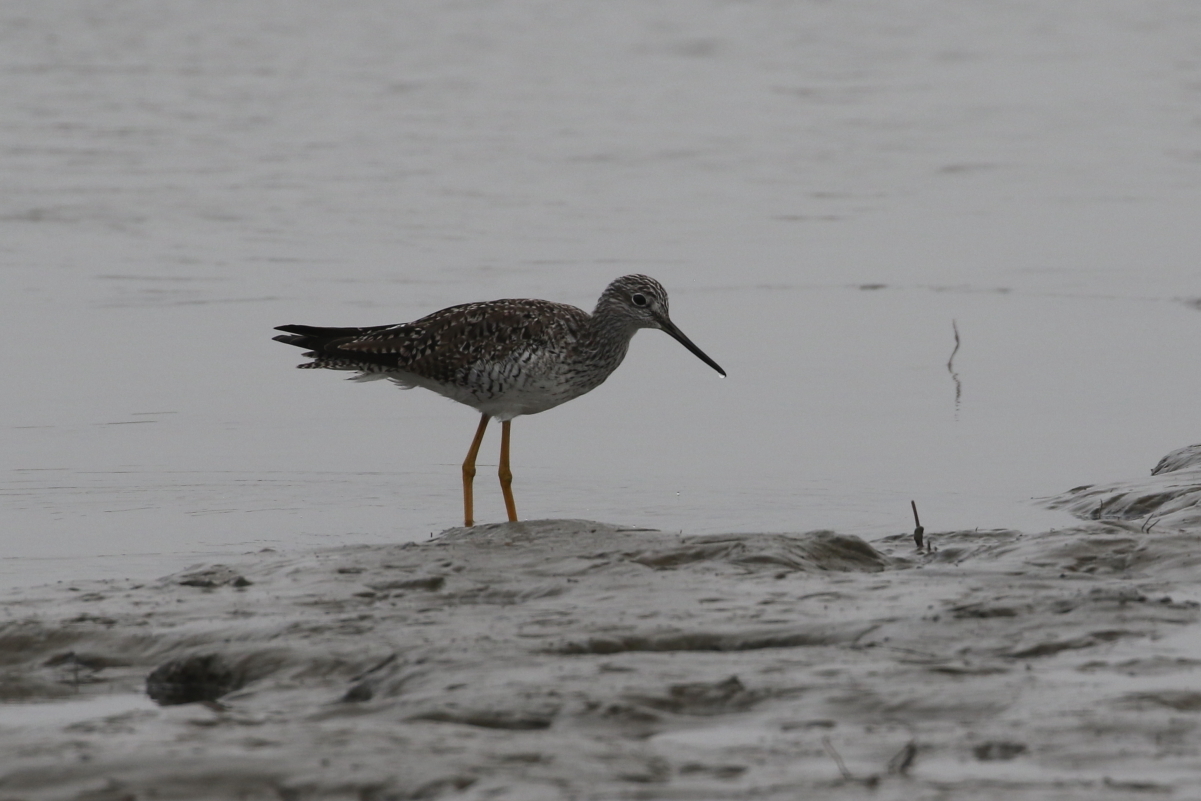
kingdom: Animalia
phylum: Chordata
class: Aves
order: Charadriiformes
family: Scolopacidae
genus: Tringa
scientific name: Tringa melanoleuca
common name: Greater yellowlegs
